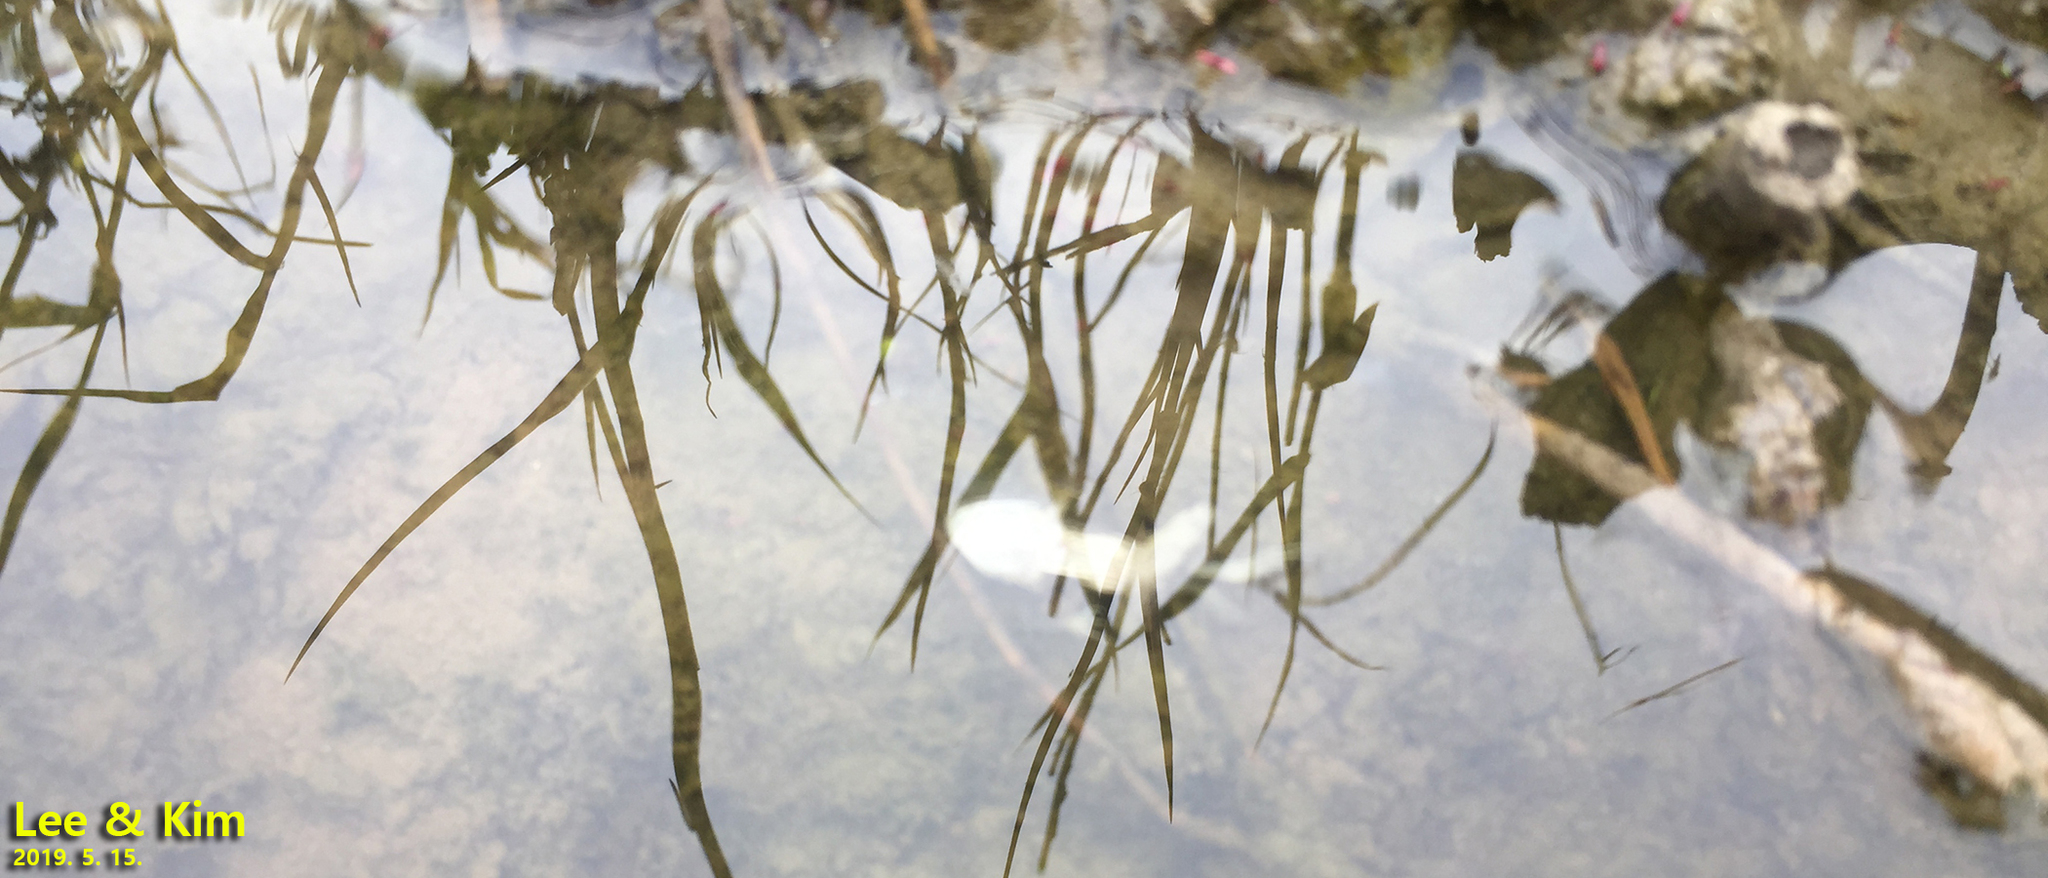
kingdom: Animalia
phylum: Chordata
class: Amphibia
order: Anura
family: Ranidae
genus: Pelophylax
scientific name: Pelophylax chosenicus
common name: Gold-spotted pond frog
